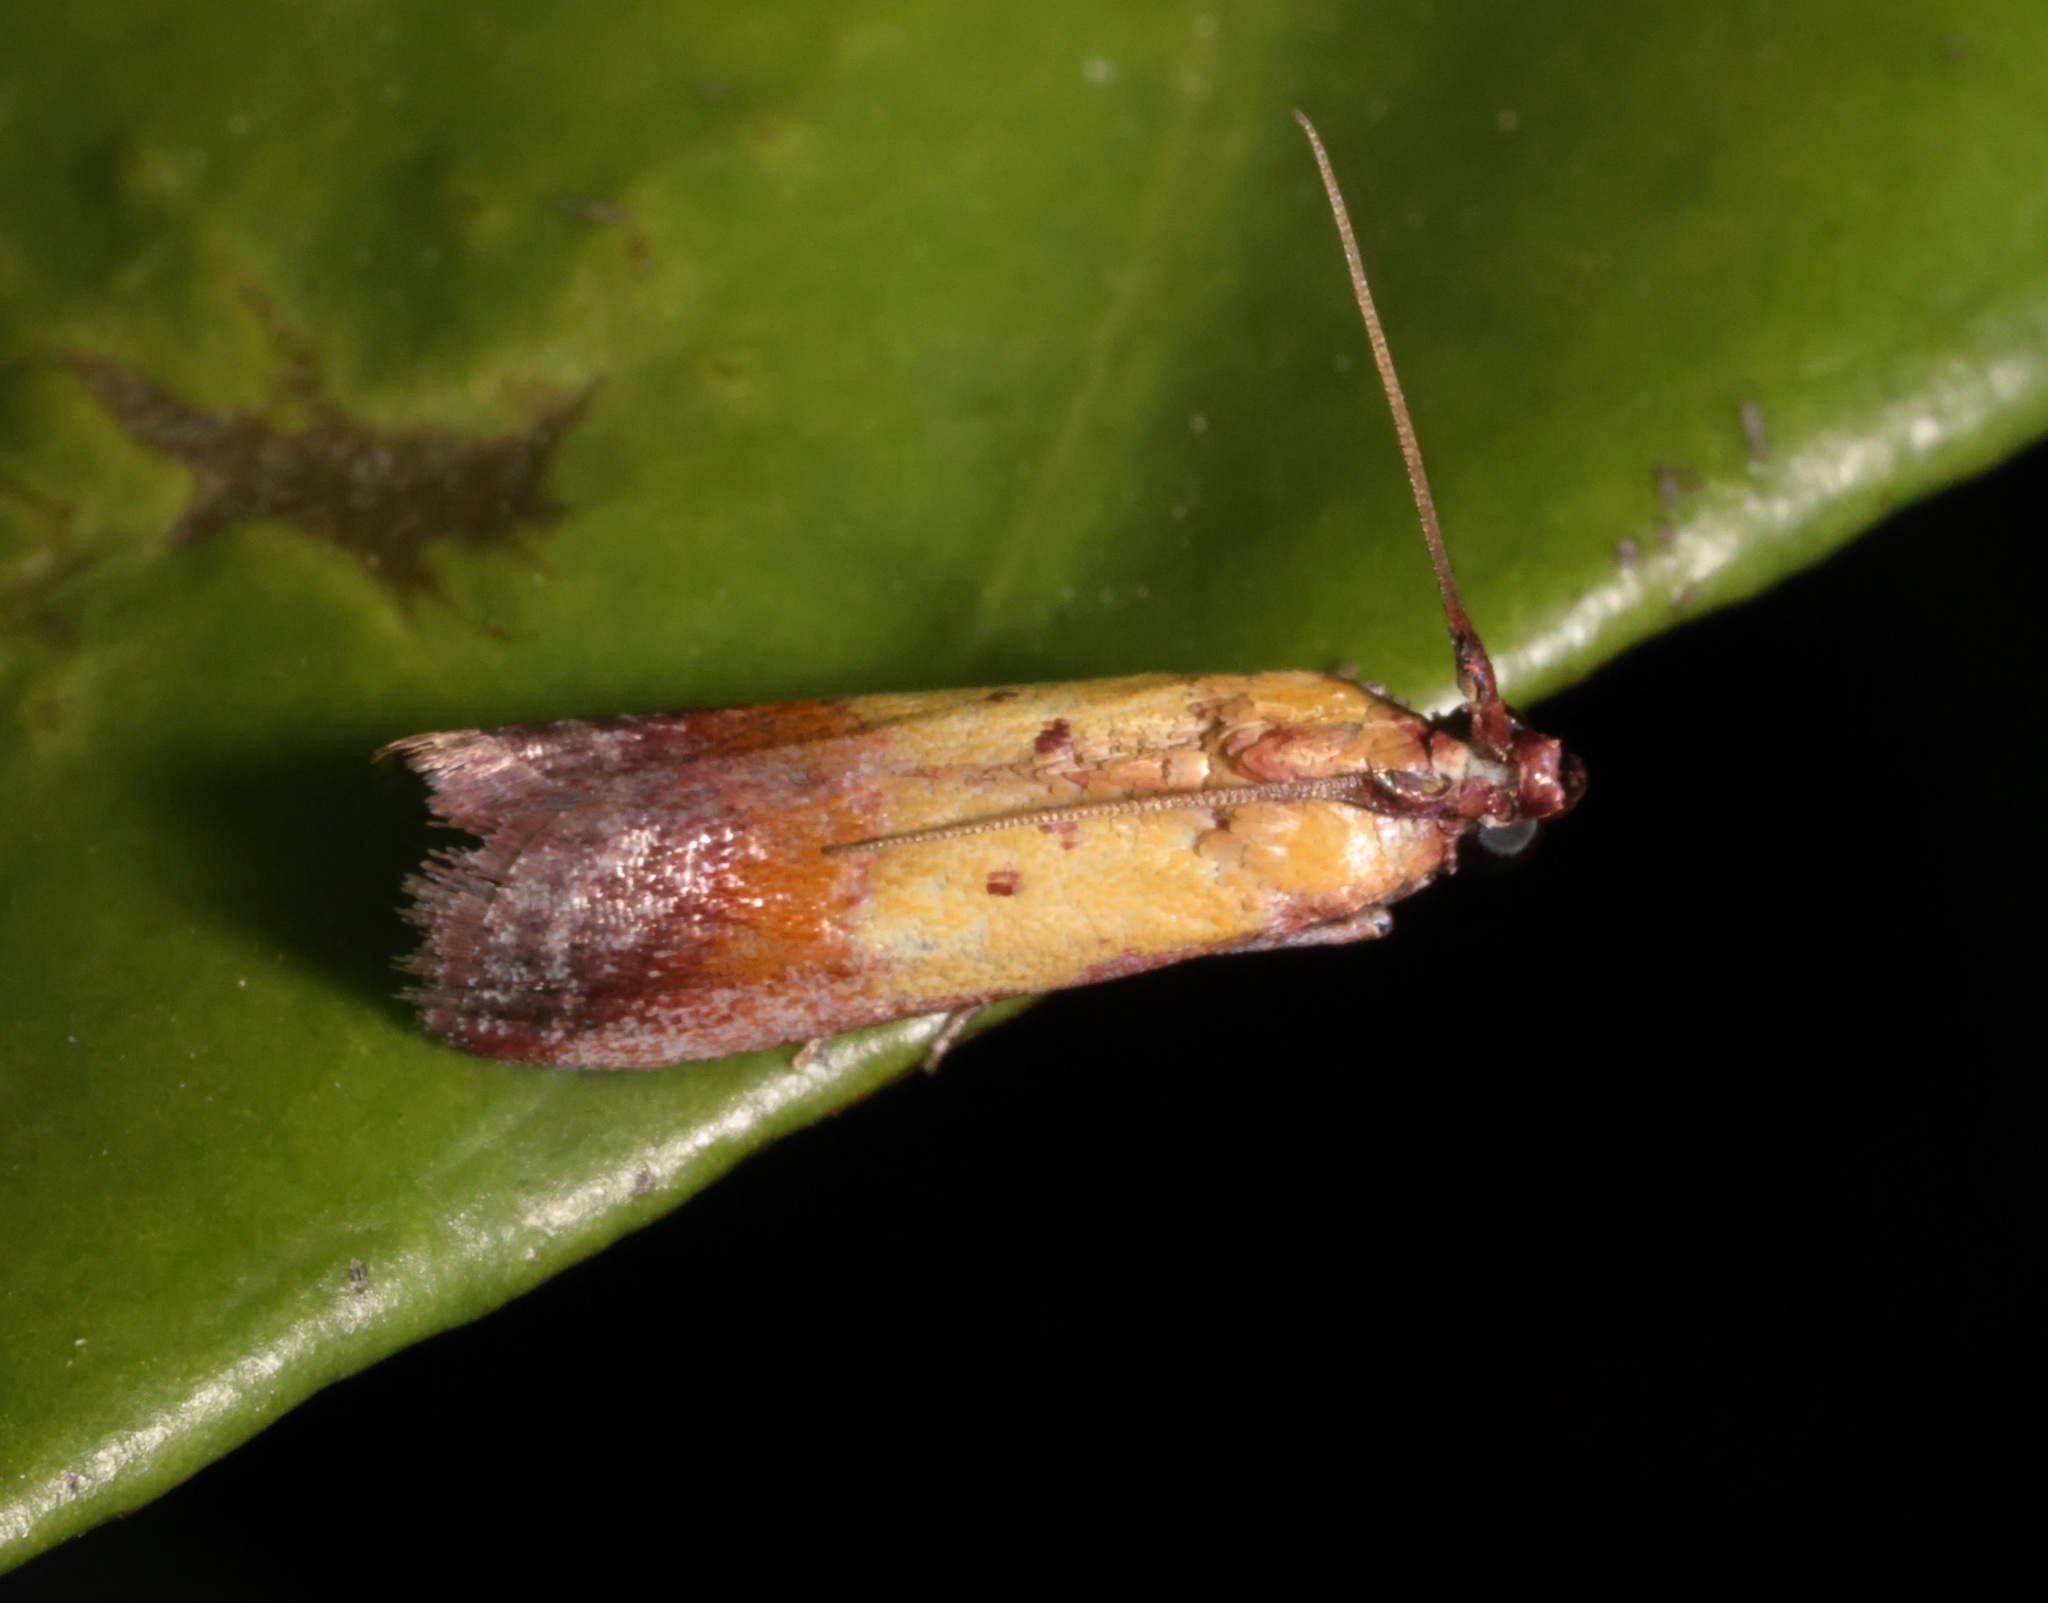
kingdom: Animalia
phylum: Arthropoda
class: Insecta
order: Lepidoptera
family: Pyralidae
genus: Piesmopoda
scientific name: Piesmopoda
